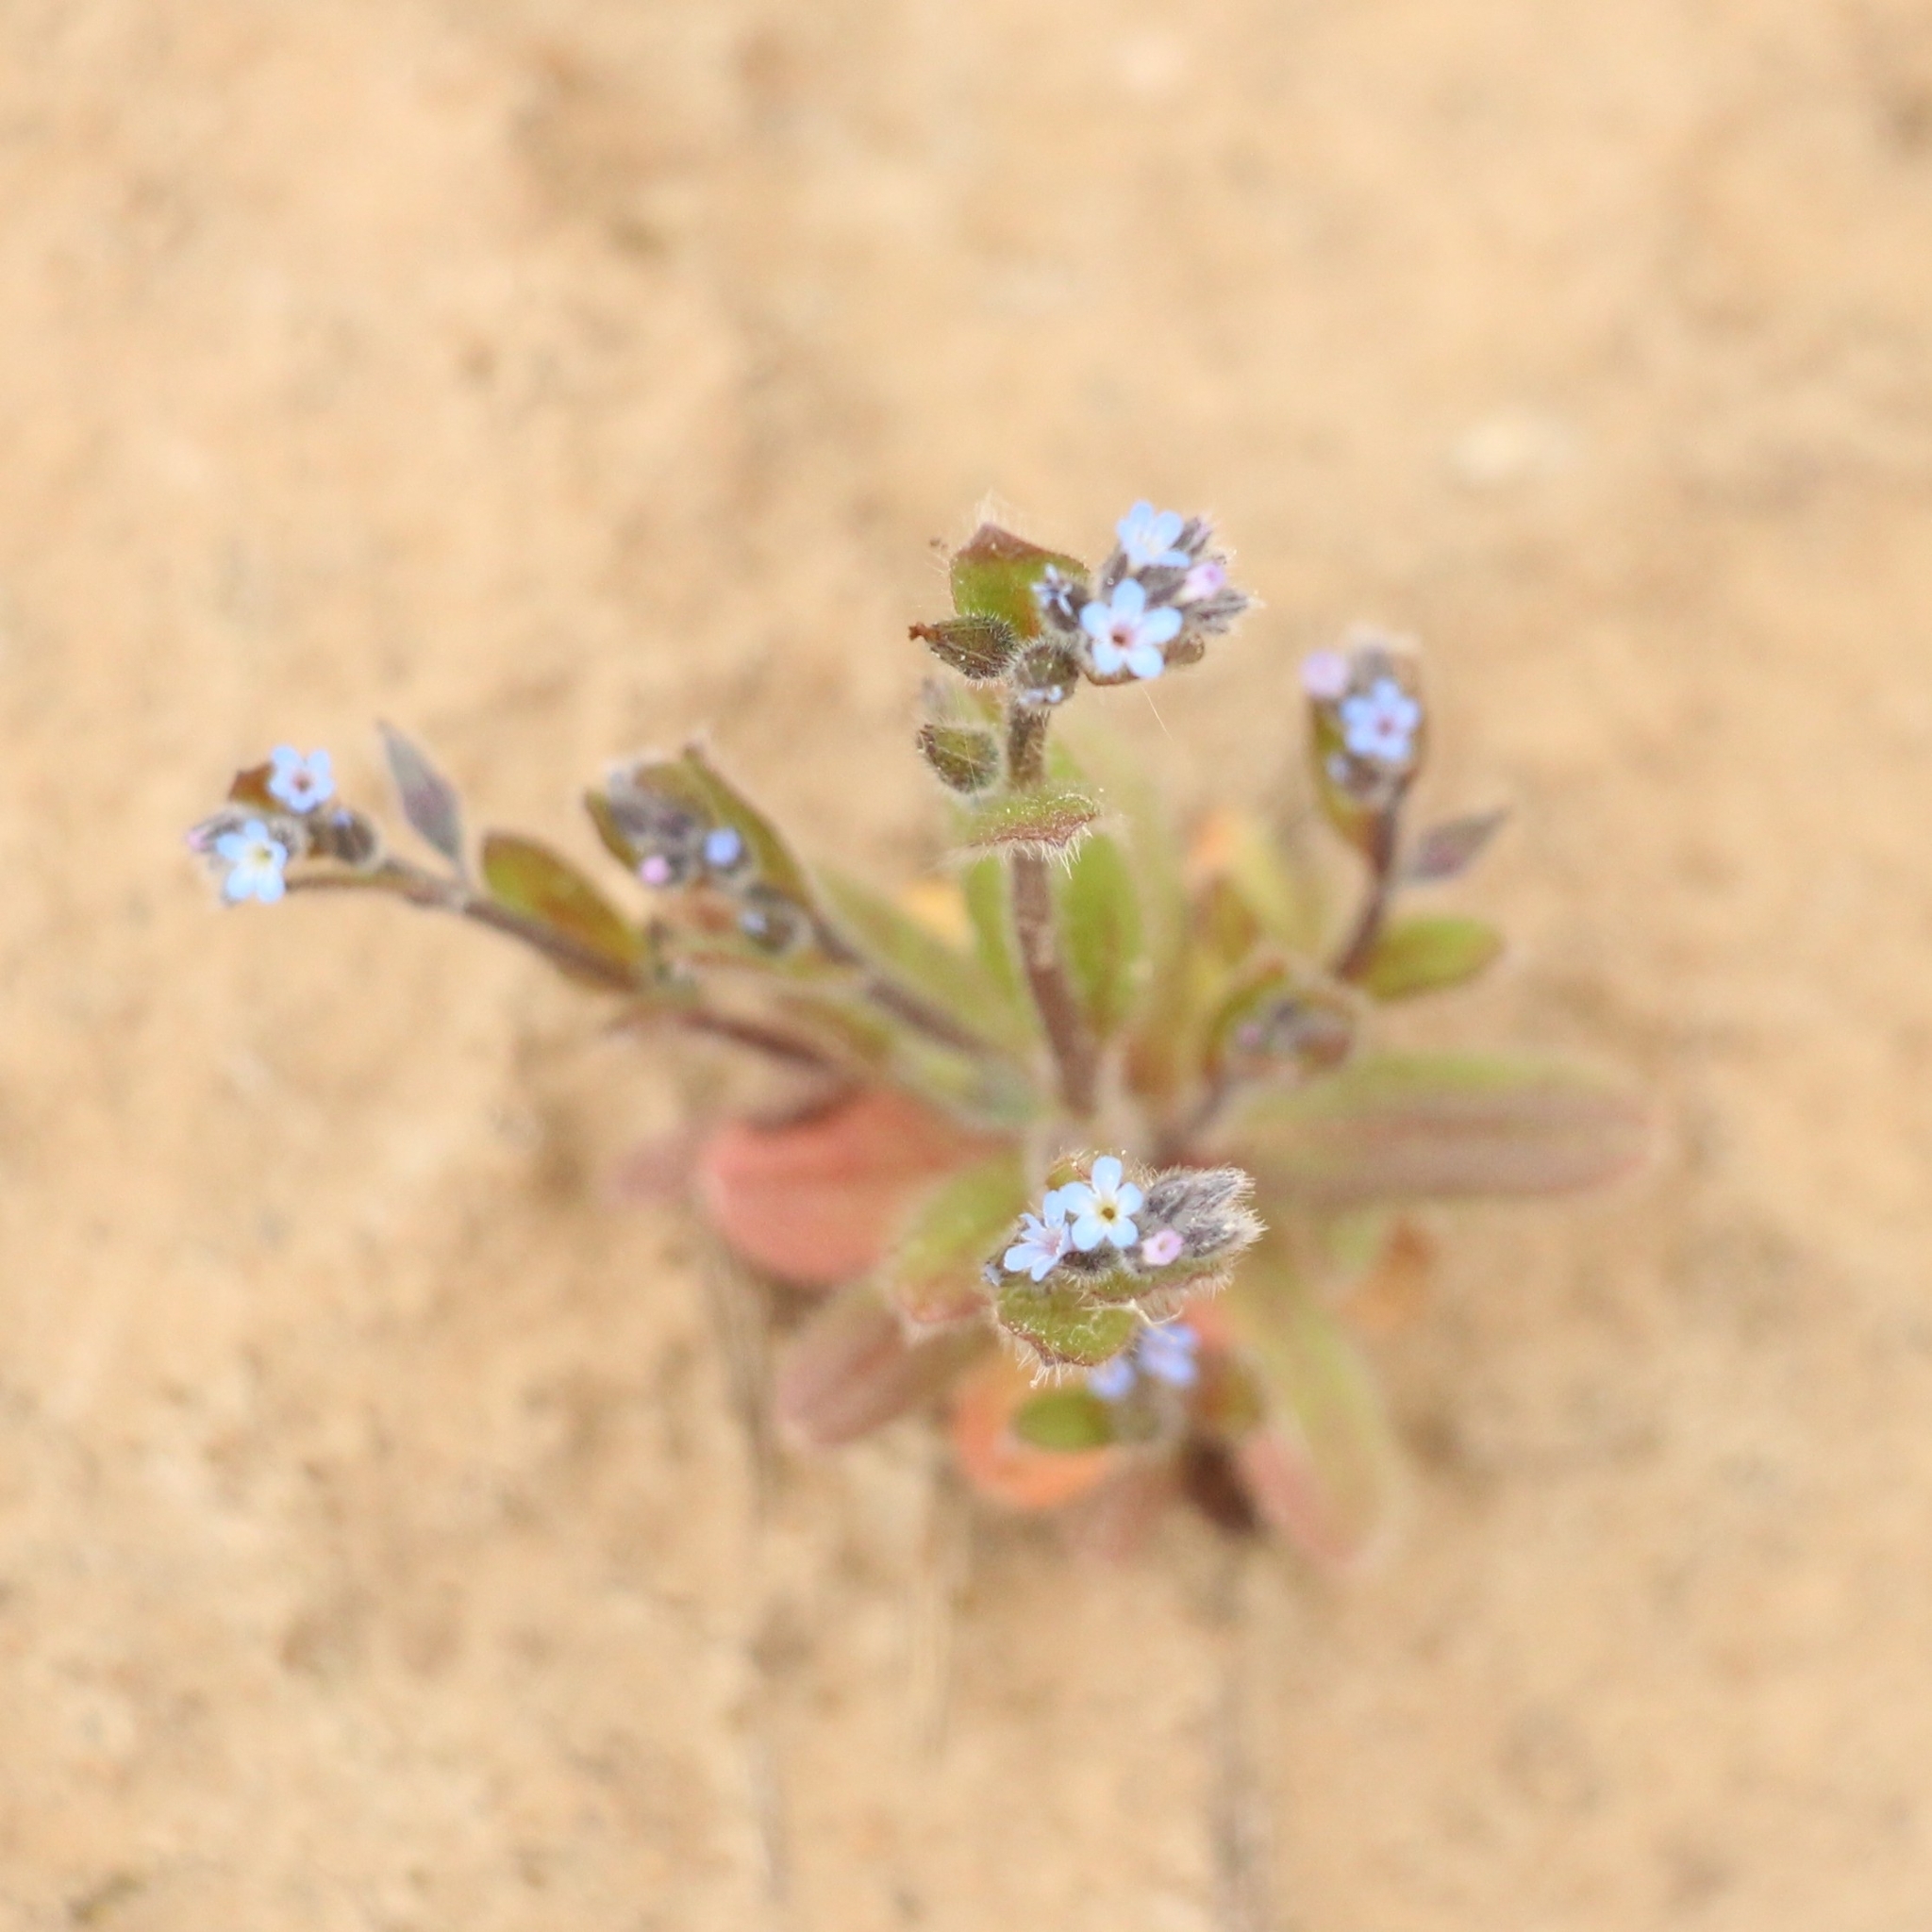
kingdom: Plantae
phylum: Tracheophyta
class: Magnoliopsida
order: Boraginales
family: Boraginaceae
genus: Myosotis
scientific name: Myosotis stricta
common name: Strict forget-me-not
